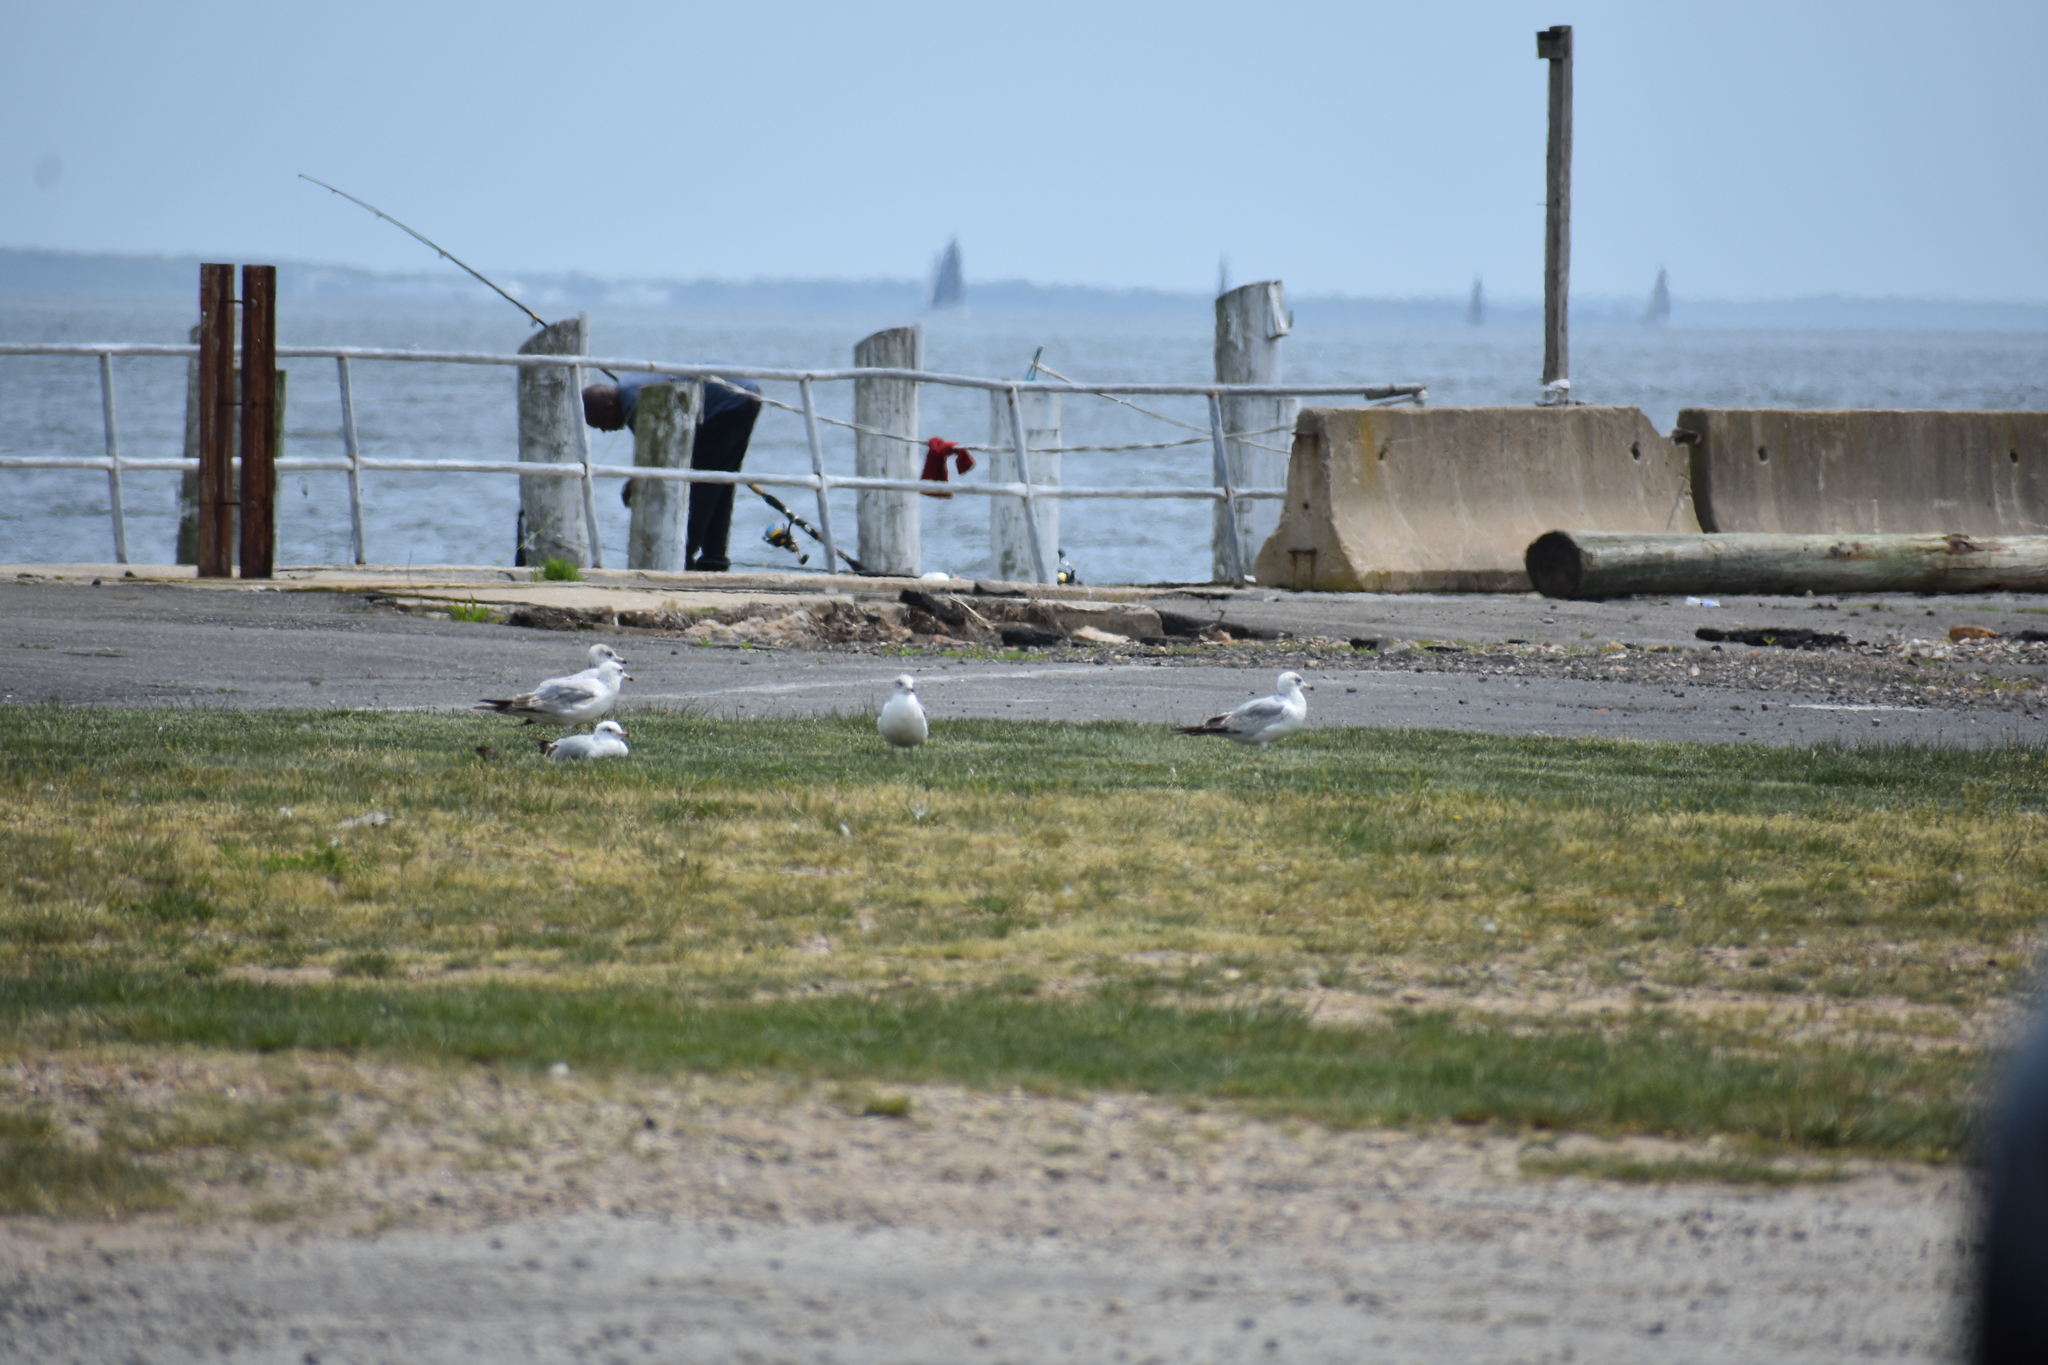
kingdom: Animalia
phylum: Chordata
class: Aves
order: Charadriiformes
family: Laridae
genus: Larus
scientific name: Larus delawarensis
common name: Ring-billed gull
